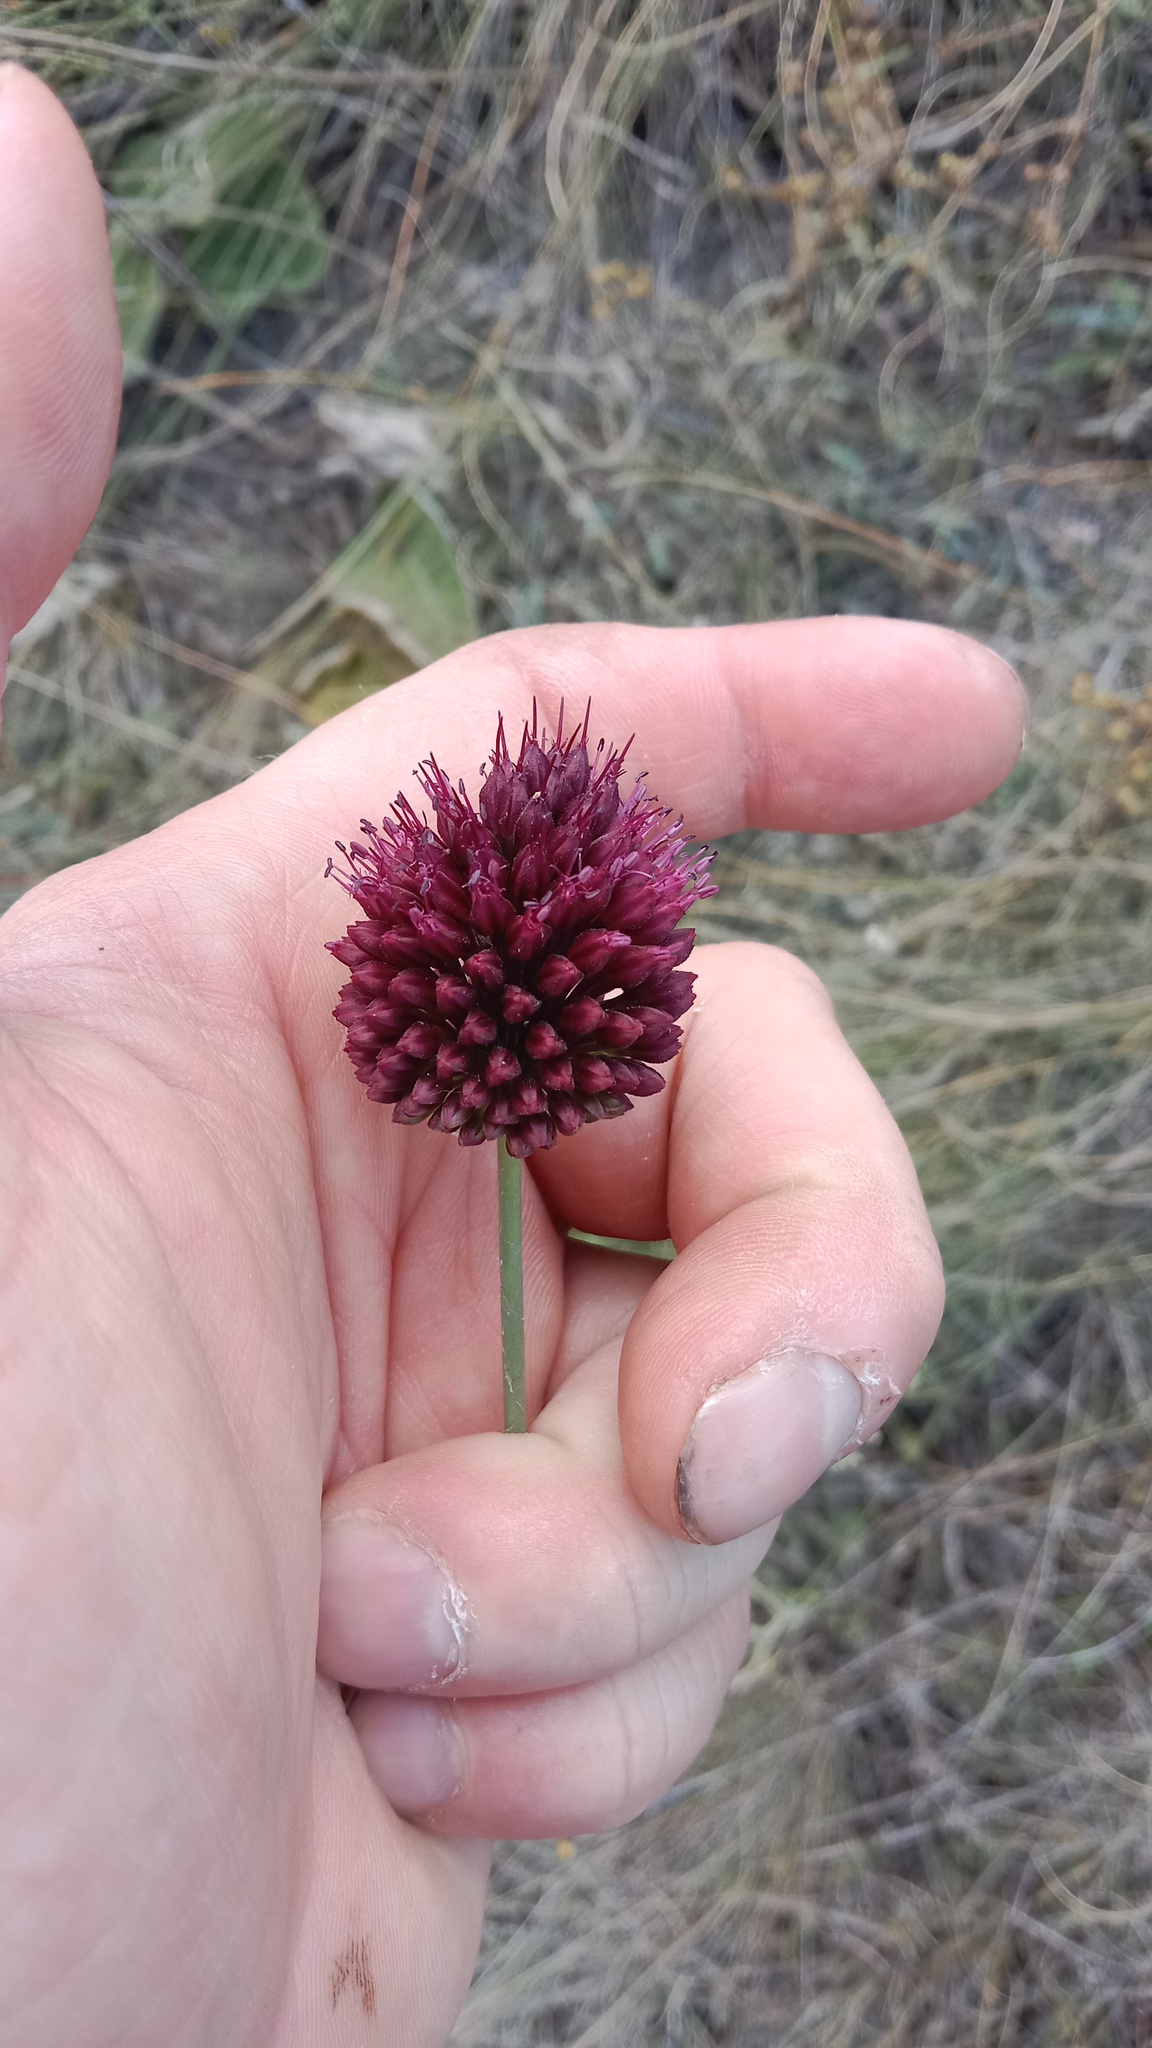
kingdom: Plantae
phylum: Tracheophyta
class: Liliopsida
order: Asparagales
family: Amaryllidaceae
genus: Allium
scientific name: Allium sphaerocephalon
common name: Round-headed leek
